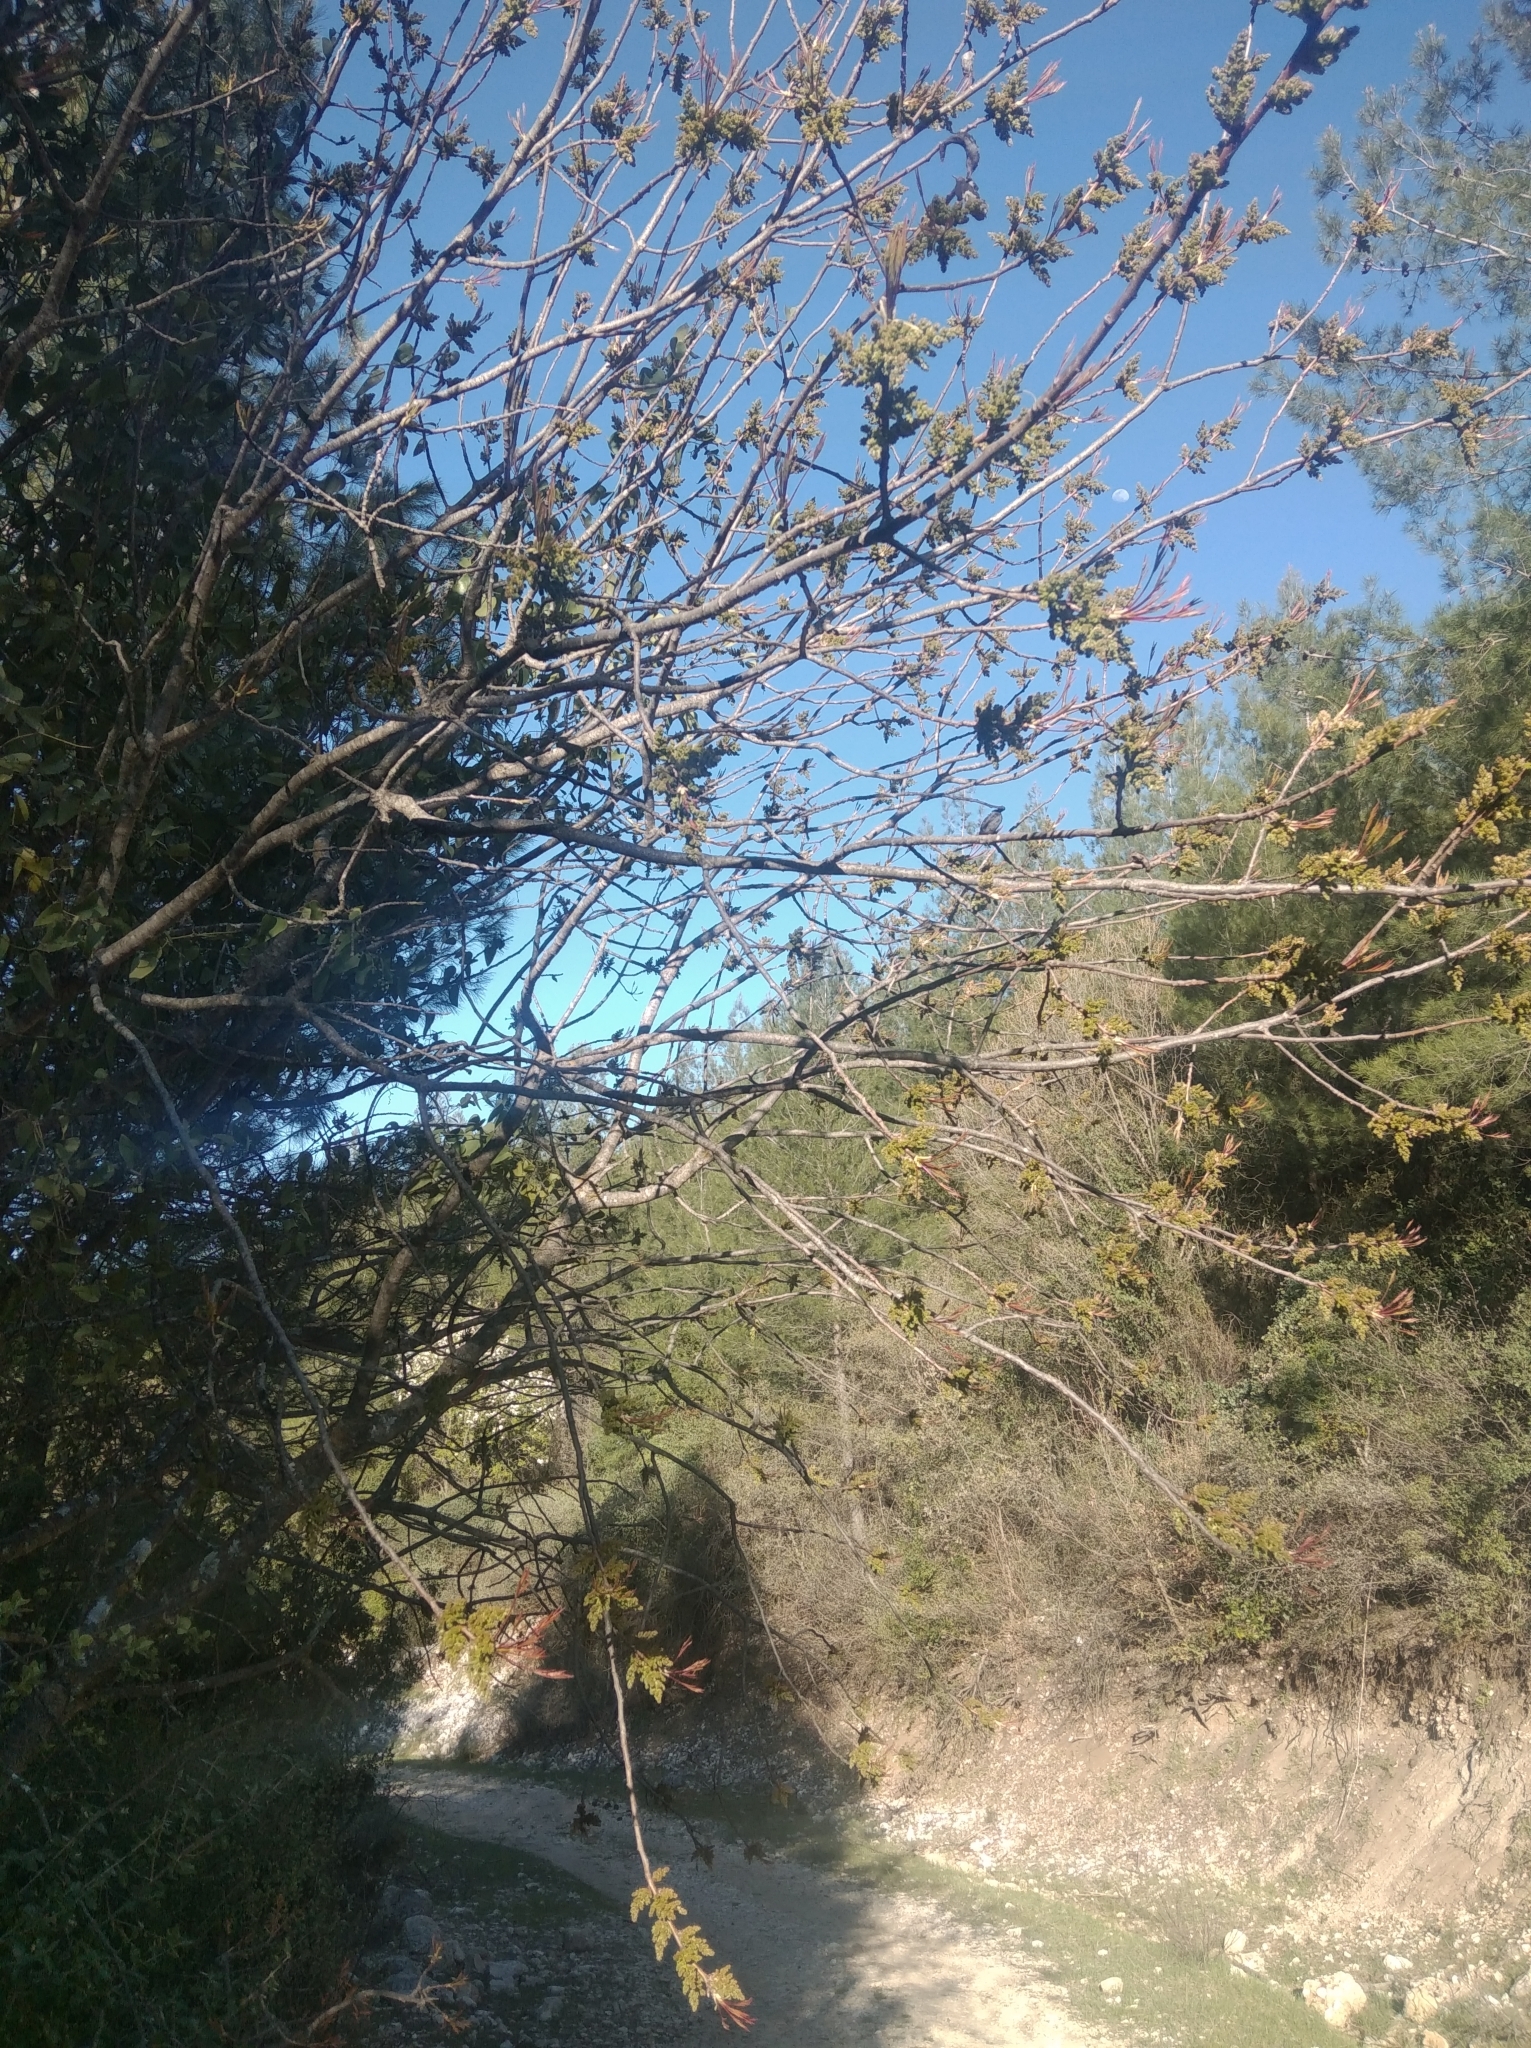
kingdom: Plantae
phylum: Tracheophyta
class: Magnoliopsida
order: Sapindales
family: Anacardiaceae
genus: Pistacia
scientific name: Pistacia terebinthus
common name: Terebinth
